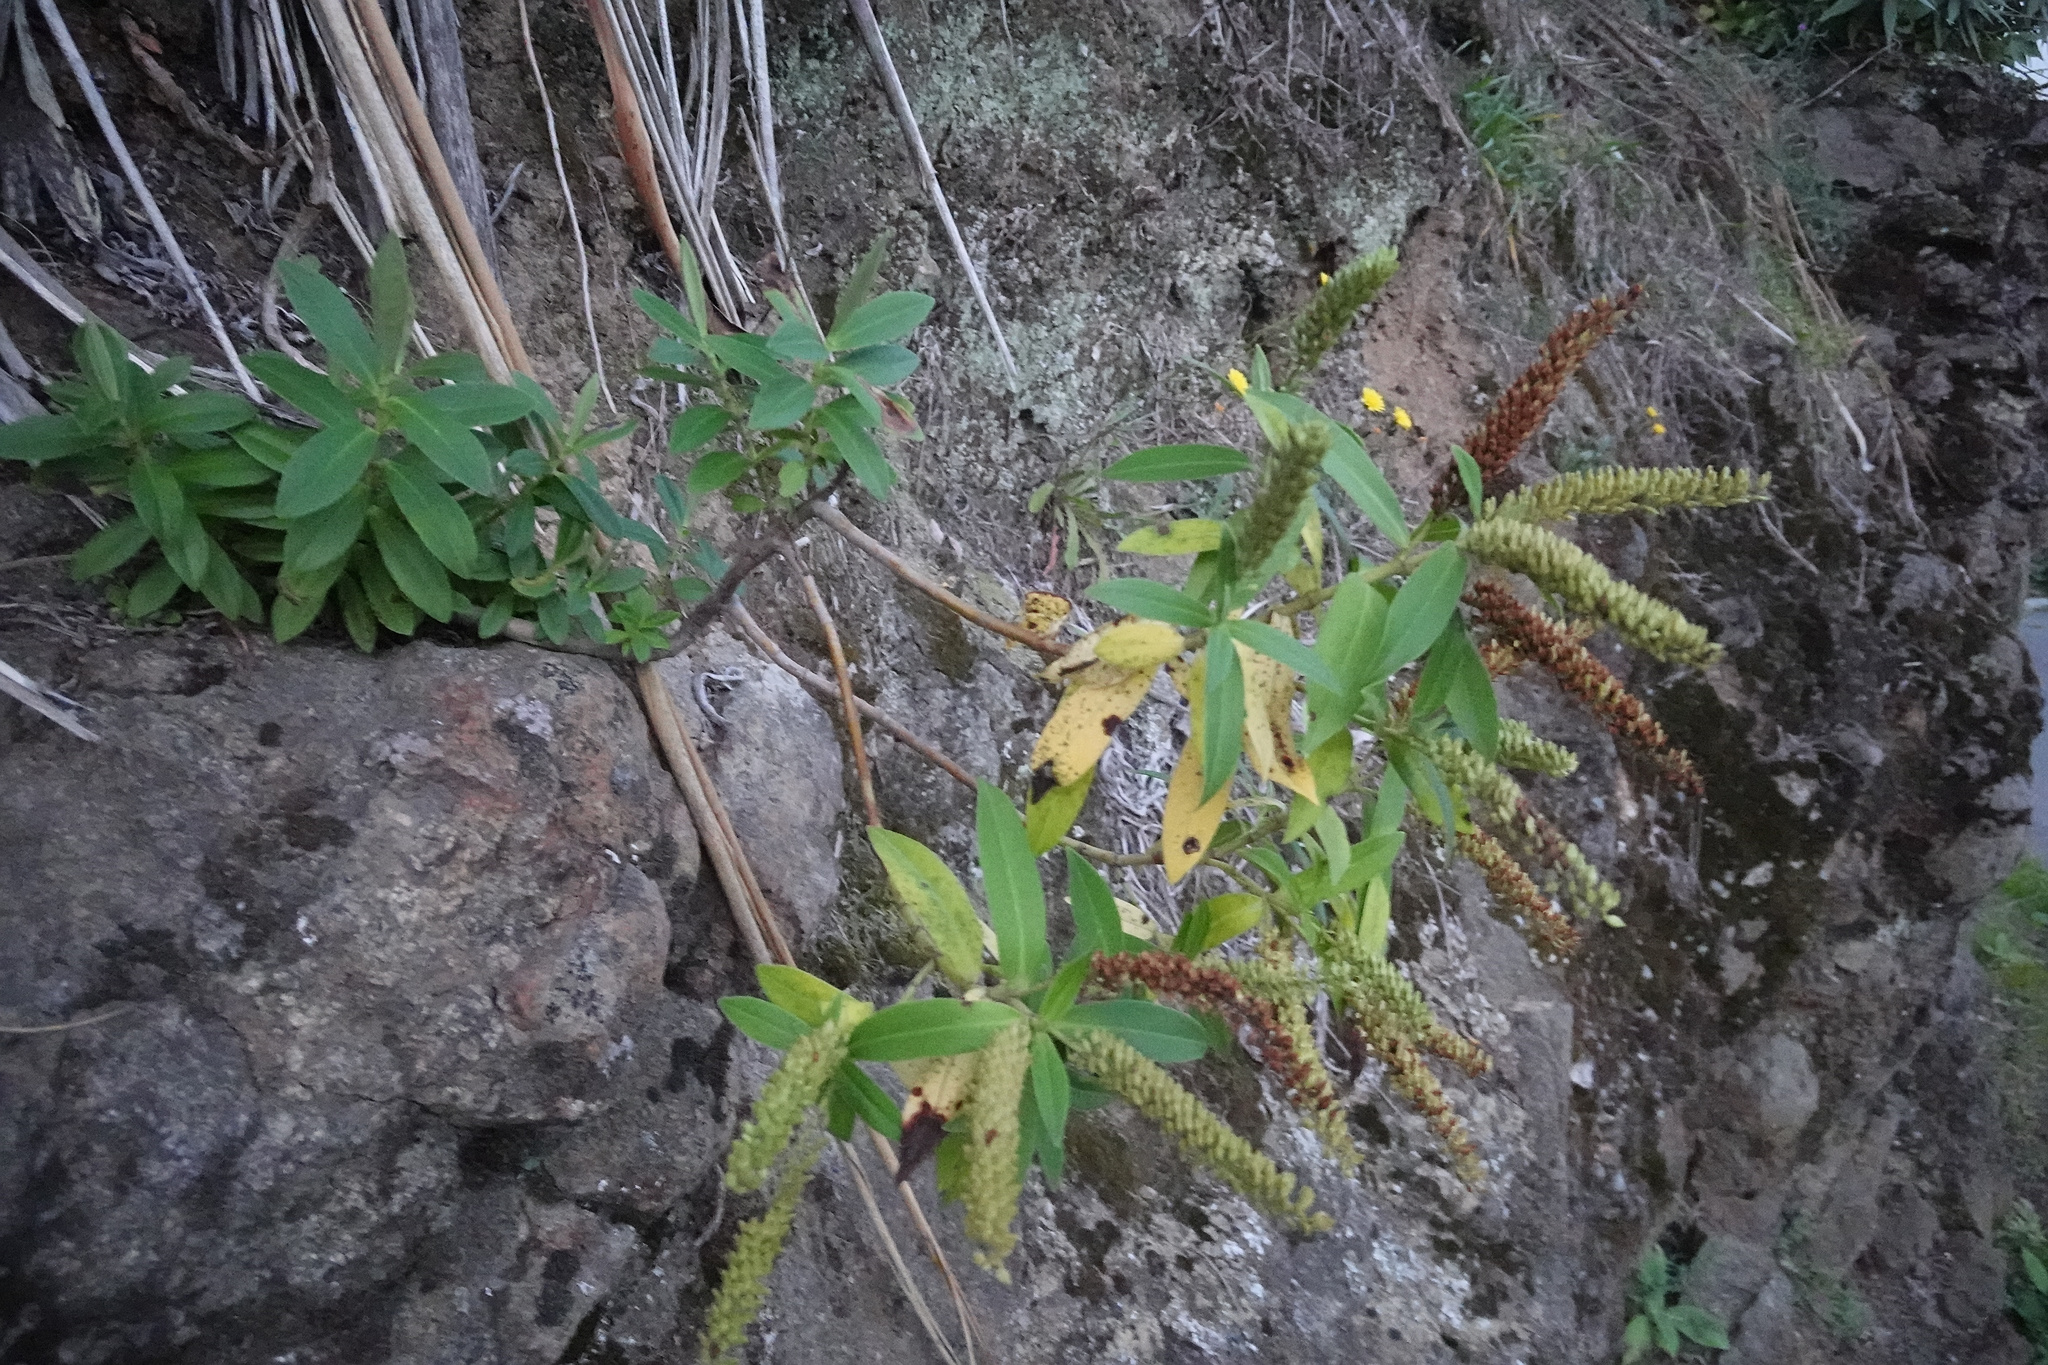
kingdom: Plantae
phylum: Tracheophyta
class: Magnoliopsida
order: Lamiales
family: Plantaginaceae
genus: Veronica
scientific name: Veronica salicifolia
